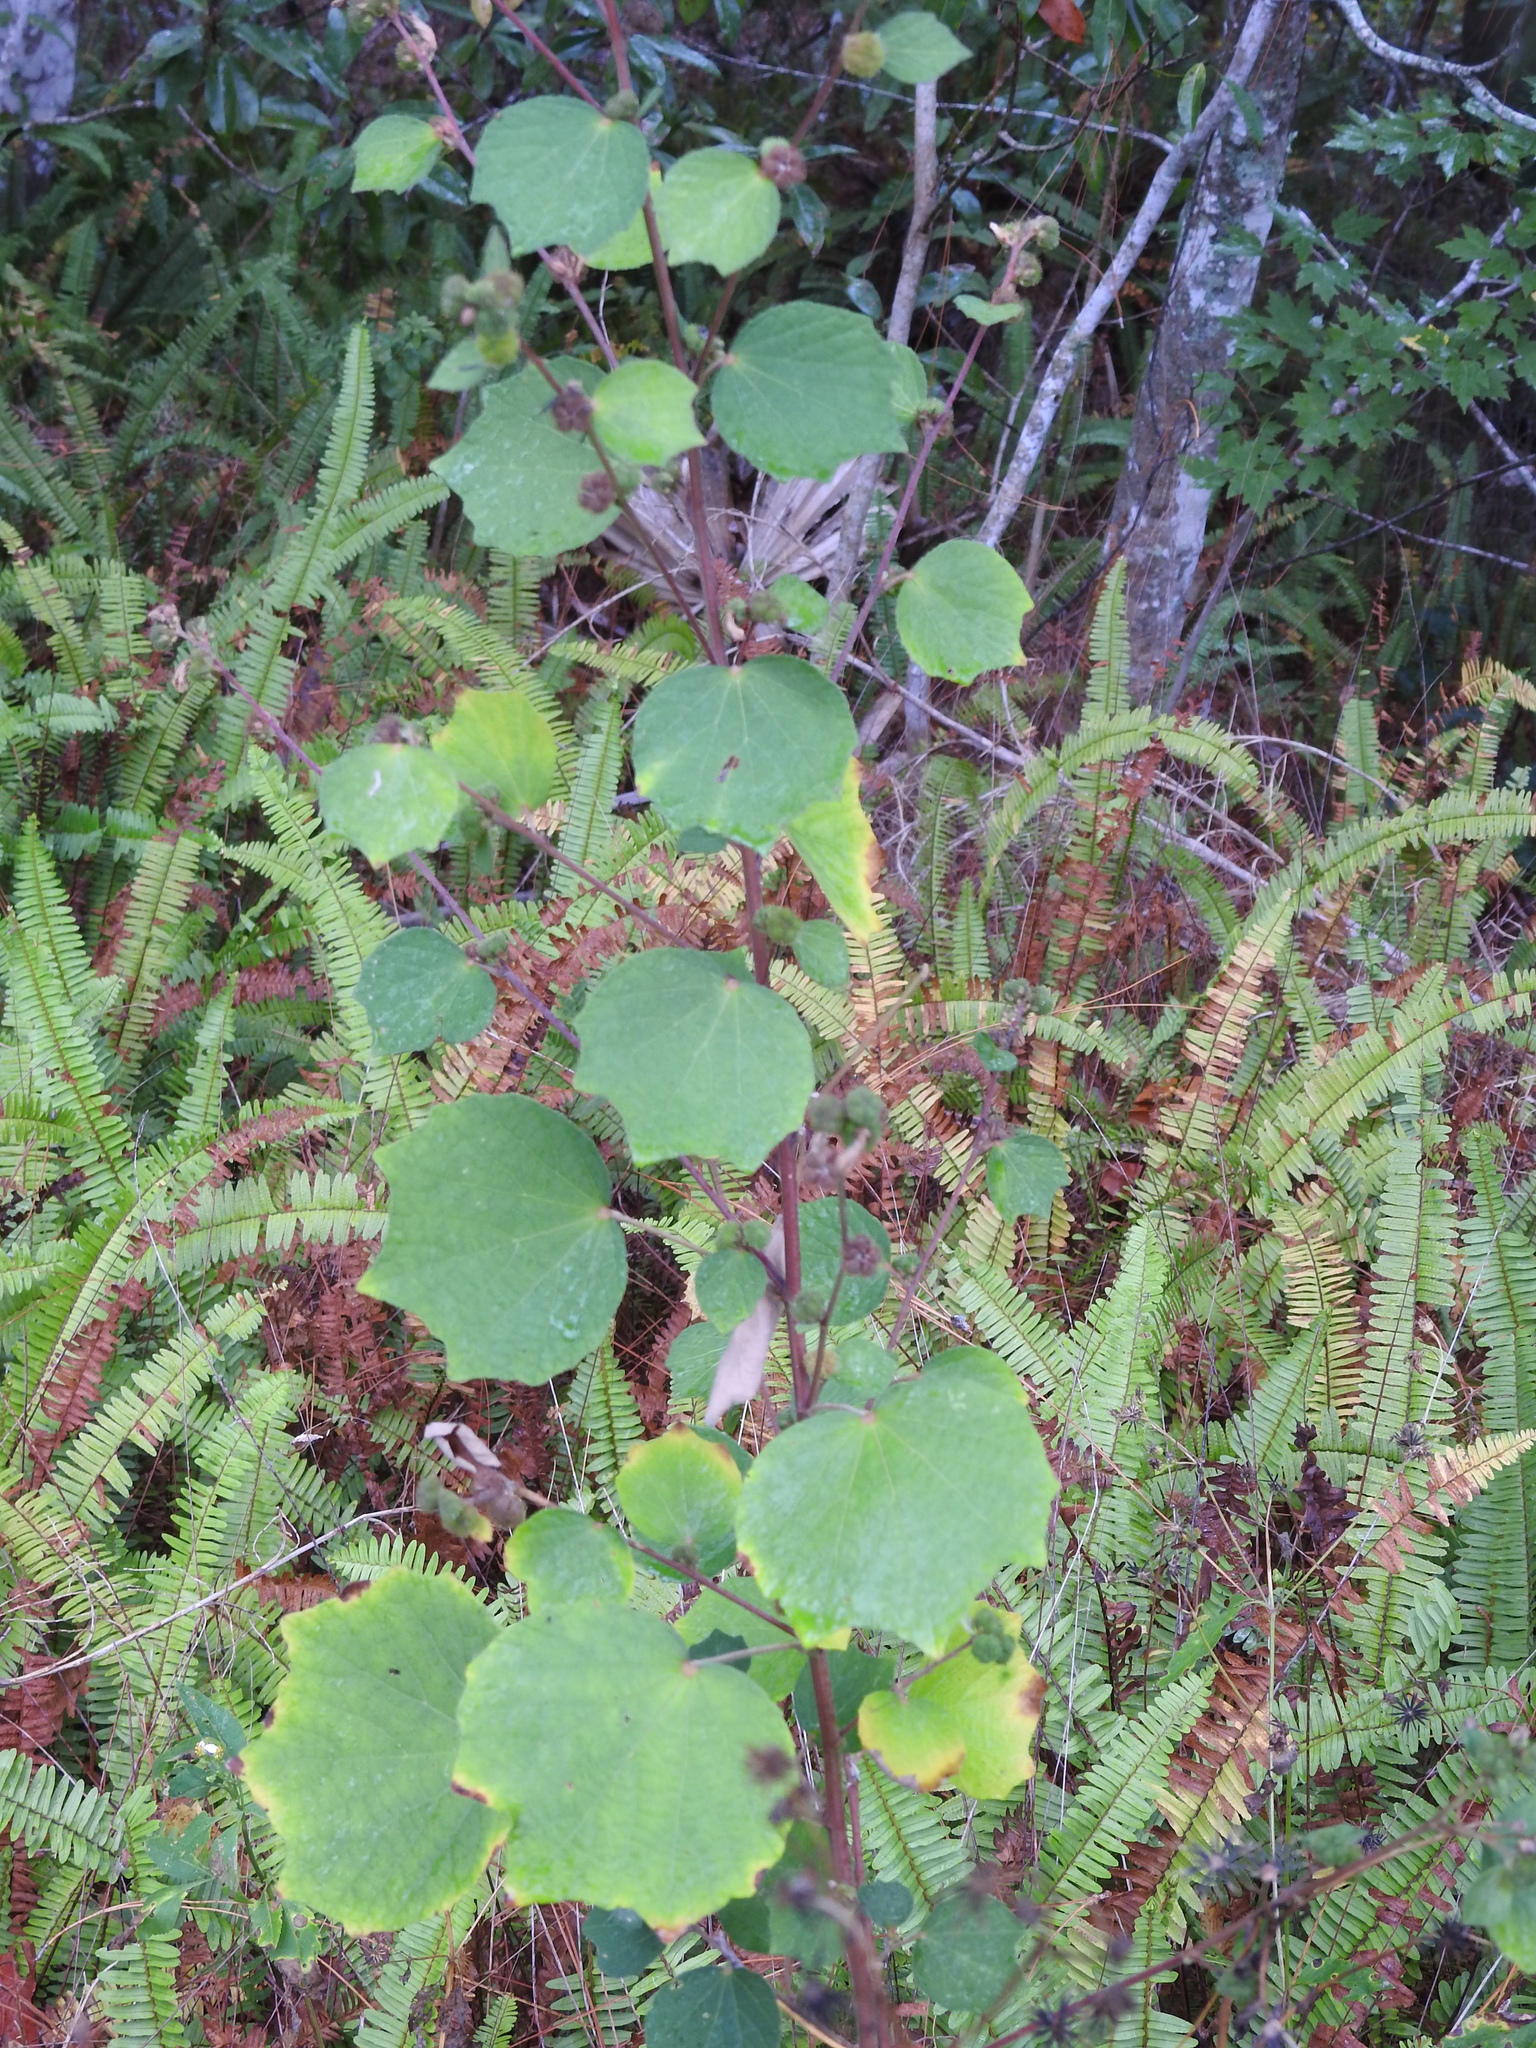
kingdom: Plantae
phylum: Tracheophyta
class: Magnoliopsida
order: Malvales
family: Malvaceae
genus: Urena
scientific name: Urena lobata
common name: Caesarweed
